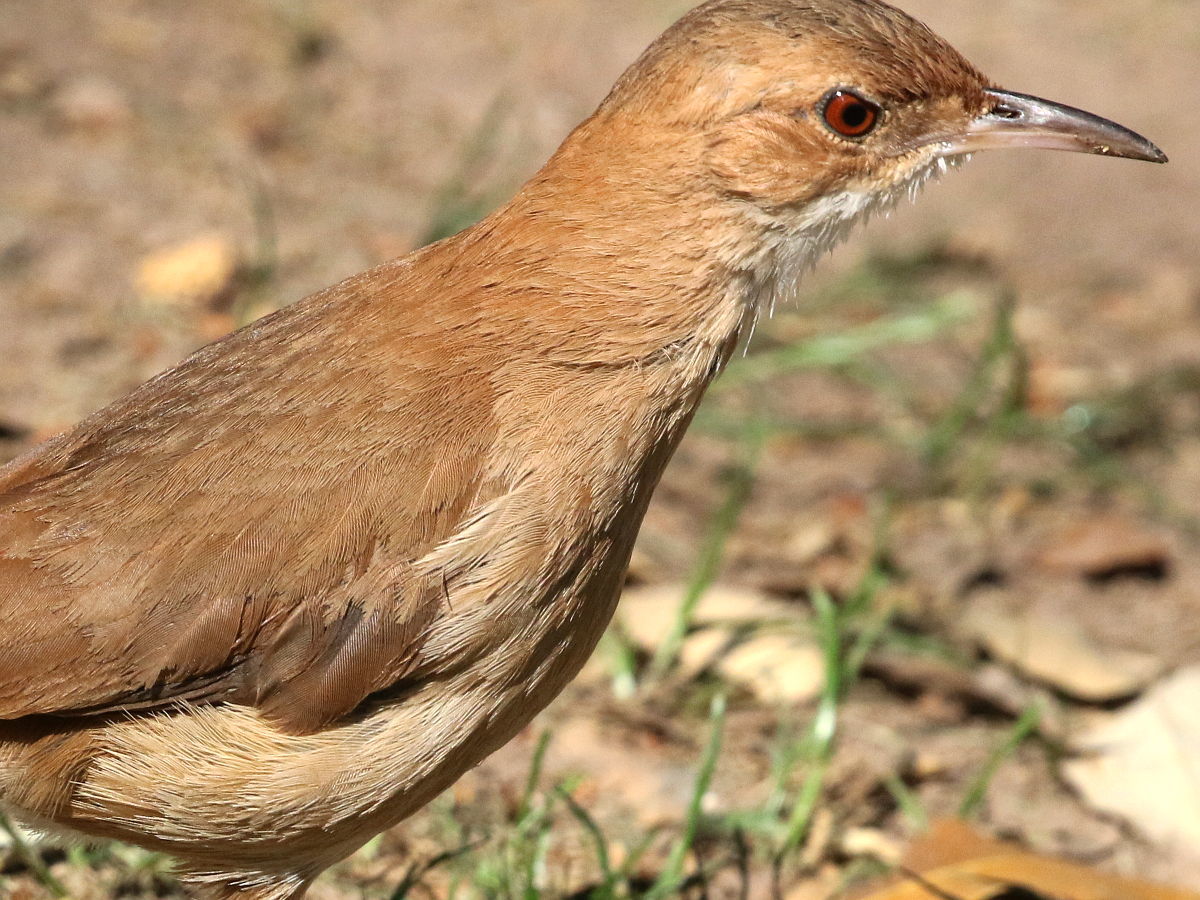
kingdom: Animalia
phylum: Chordata
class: Aves
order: Passeriformes
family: Furnariidae
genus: Furnarius
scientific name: Furnarius rufus
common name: Rufous hornero
